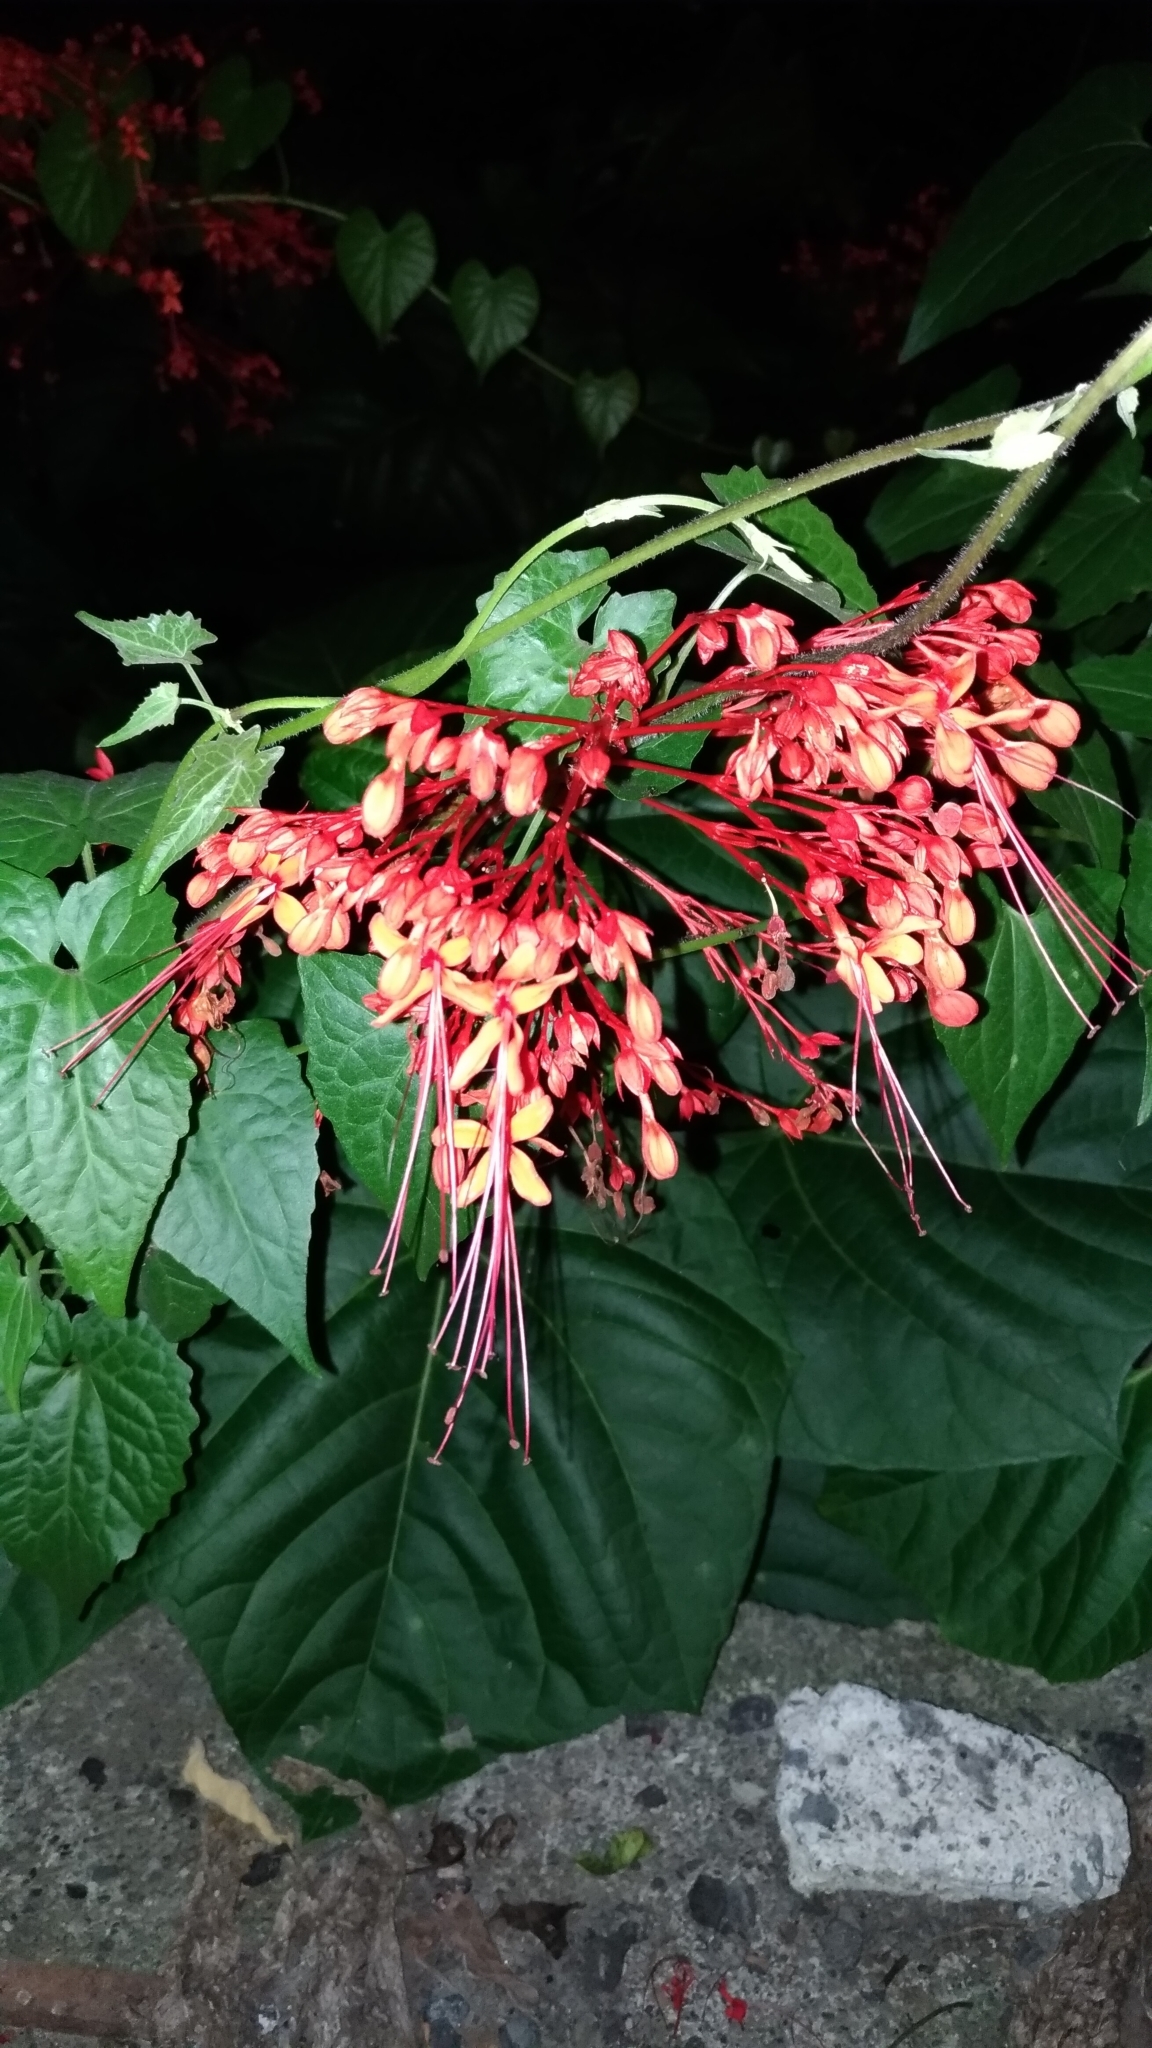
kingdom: Plantae
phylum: Tracheophyta
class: Magnoliopsida
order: Lamiales
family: Lamiaceae
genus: Clerodendrum
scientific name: Clerodendrum japonicum
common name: Japanese glorybower
